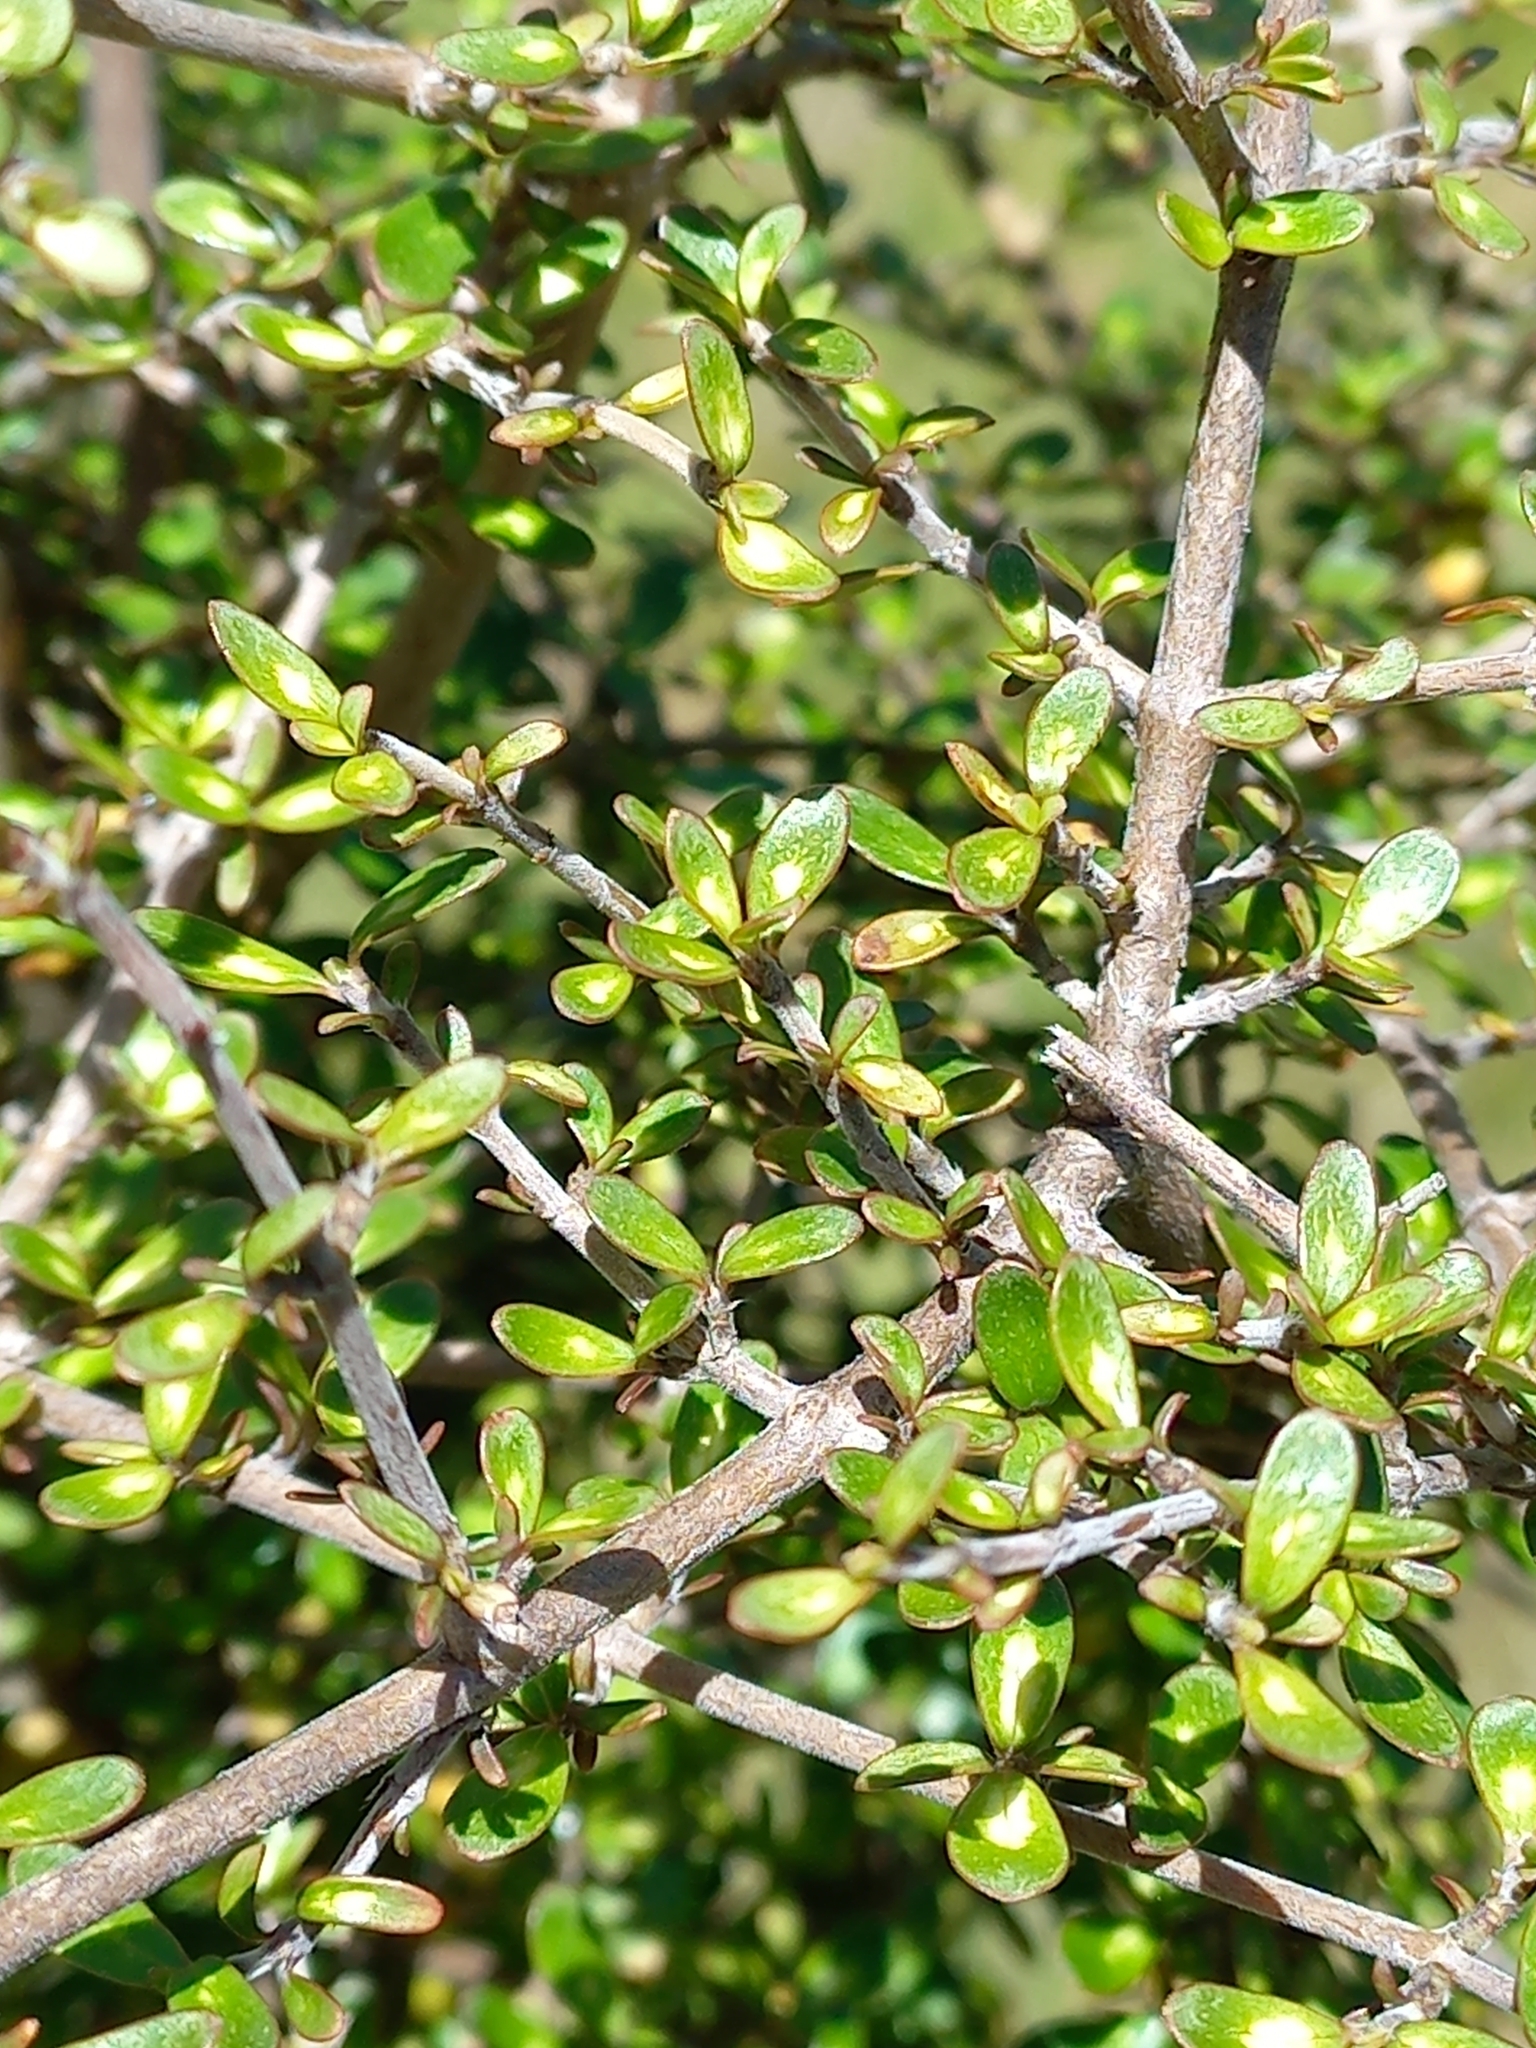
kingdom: Plantae
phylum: Tracheophyta
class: Magnoliopsida
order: Gentianales
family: Rubiaceae
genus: Coprosma
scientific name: Coprosma dumosa
